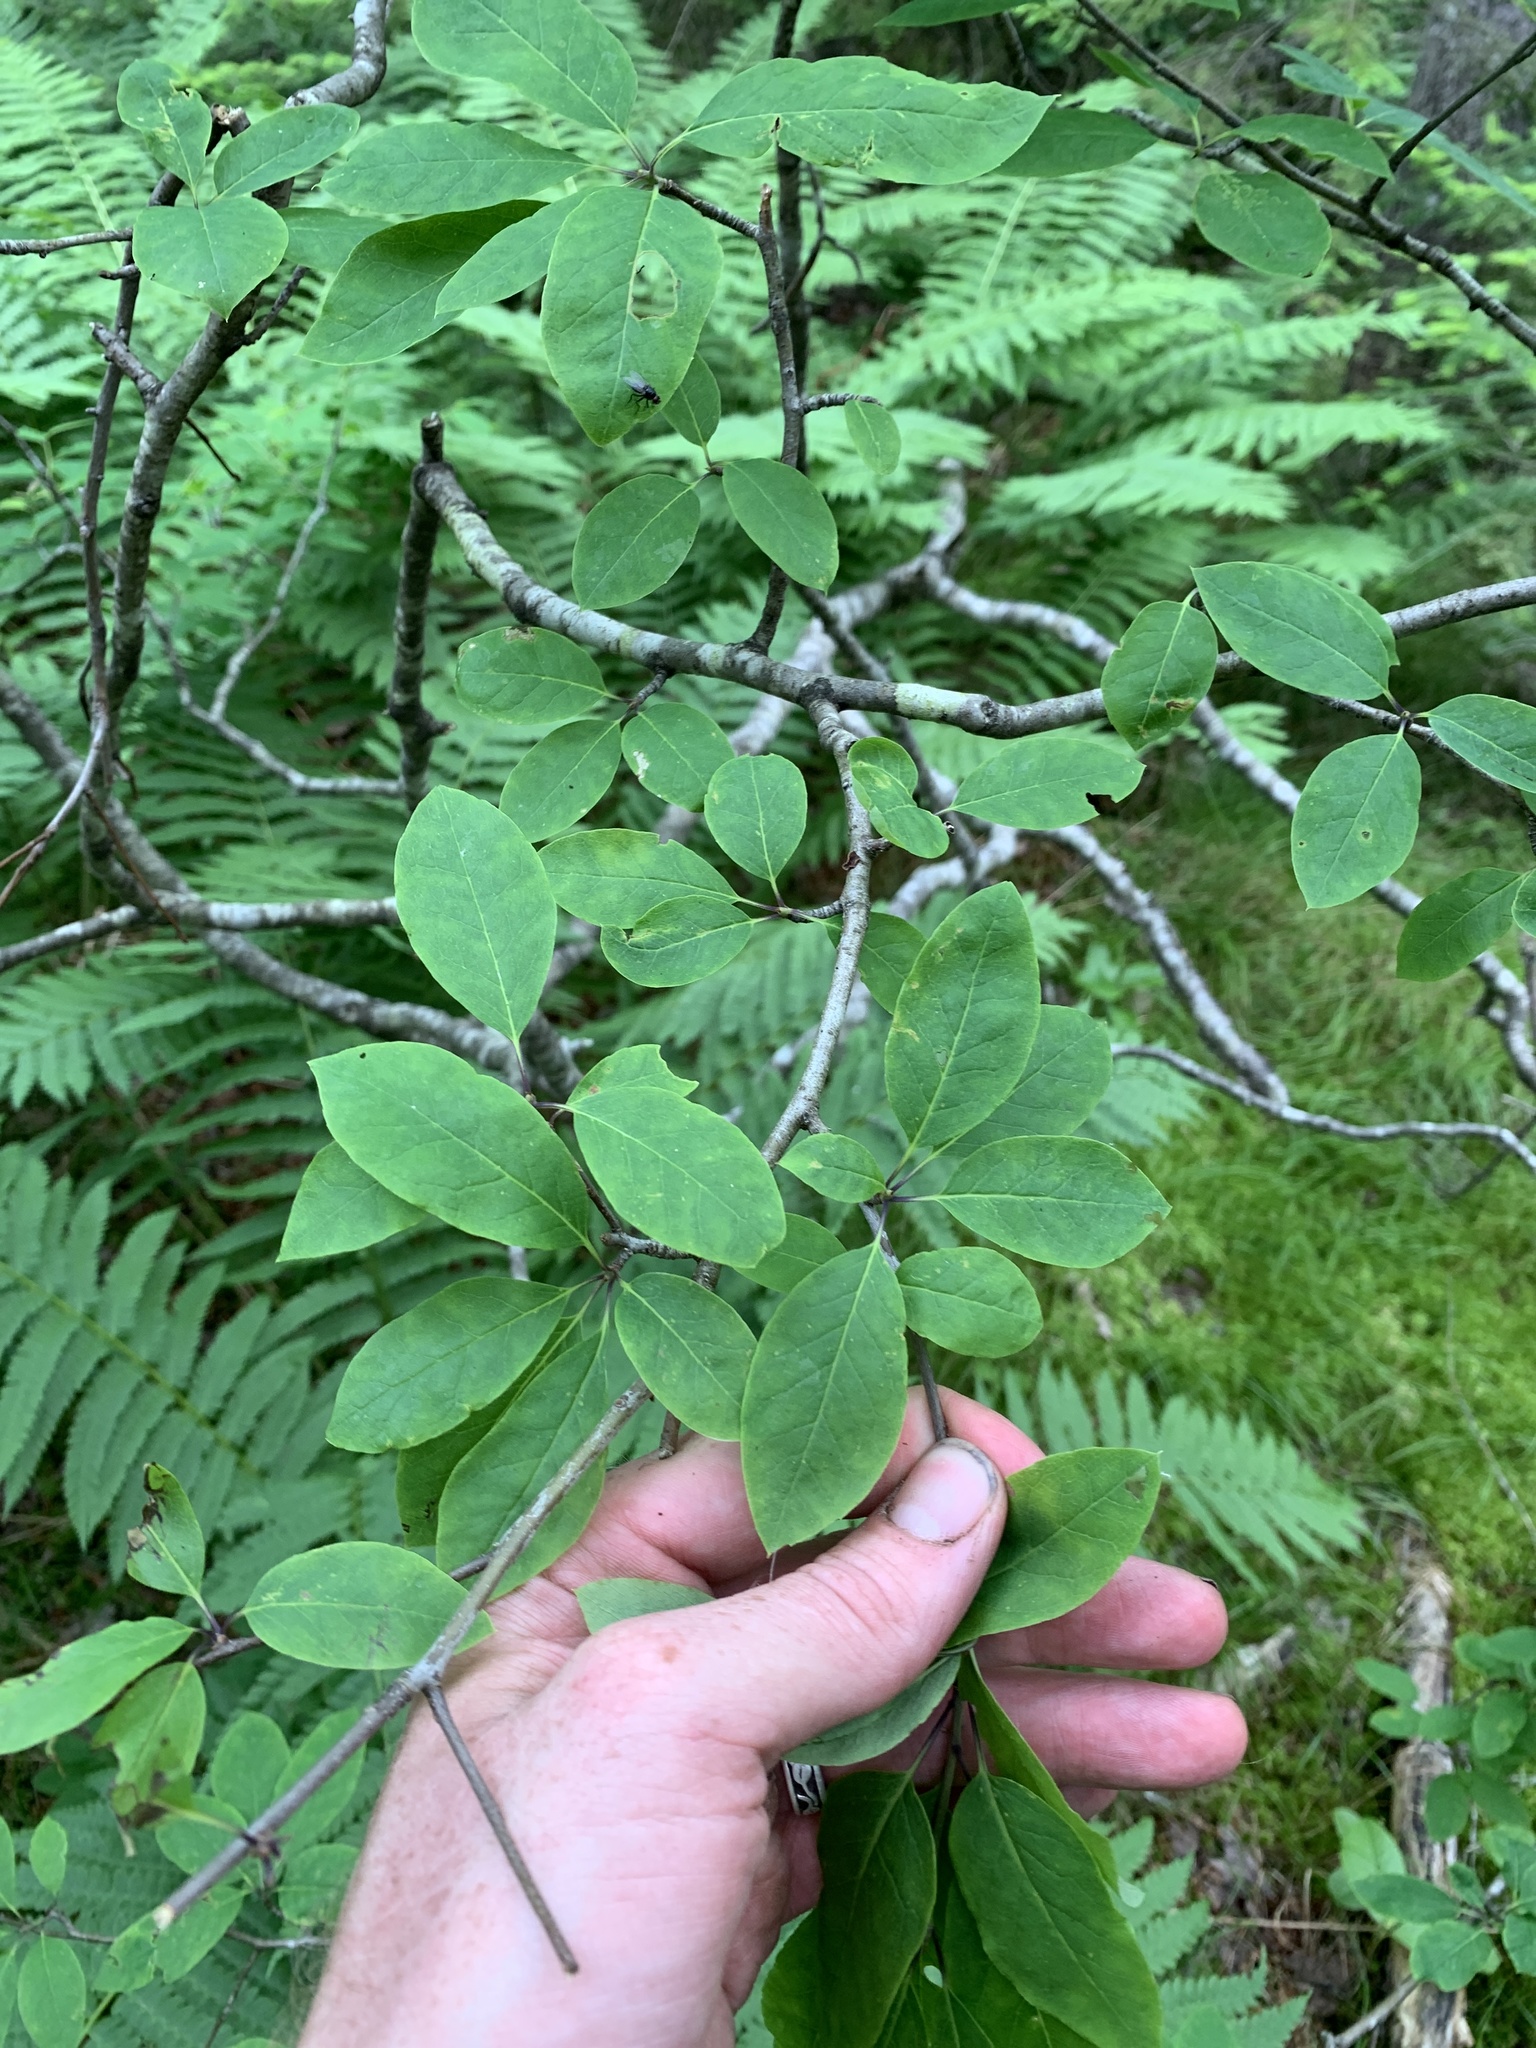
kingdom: Plantae
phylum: Tracheophyta
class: Magnoliopsida
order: Aquifoliales
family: Aquifoliaceae
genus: Ilex
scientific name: Ilex mucronata
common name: Catberry
